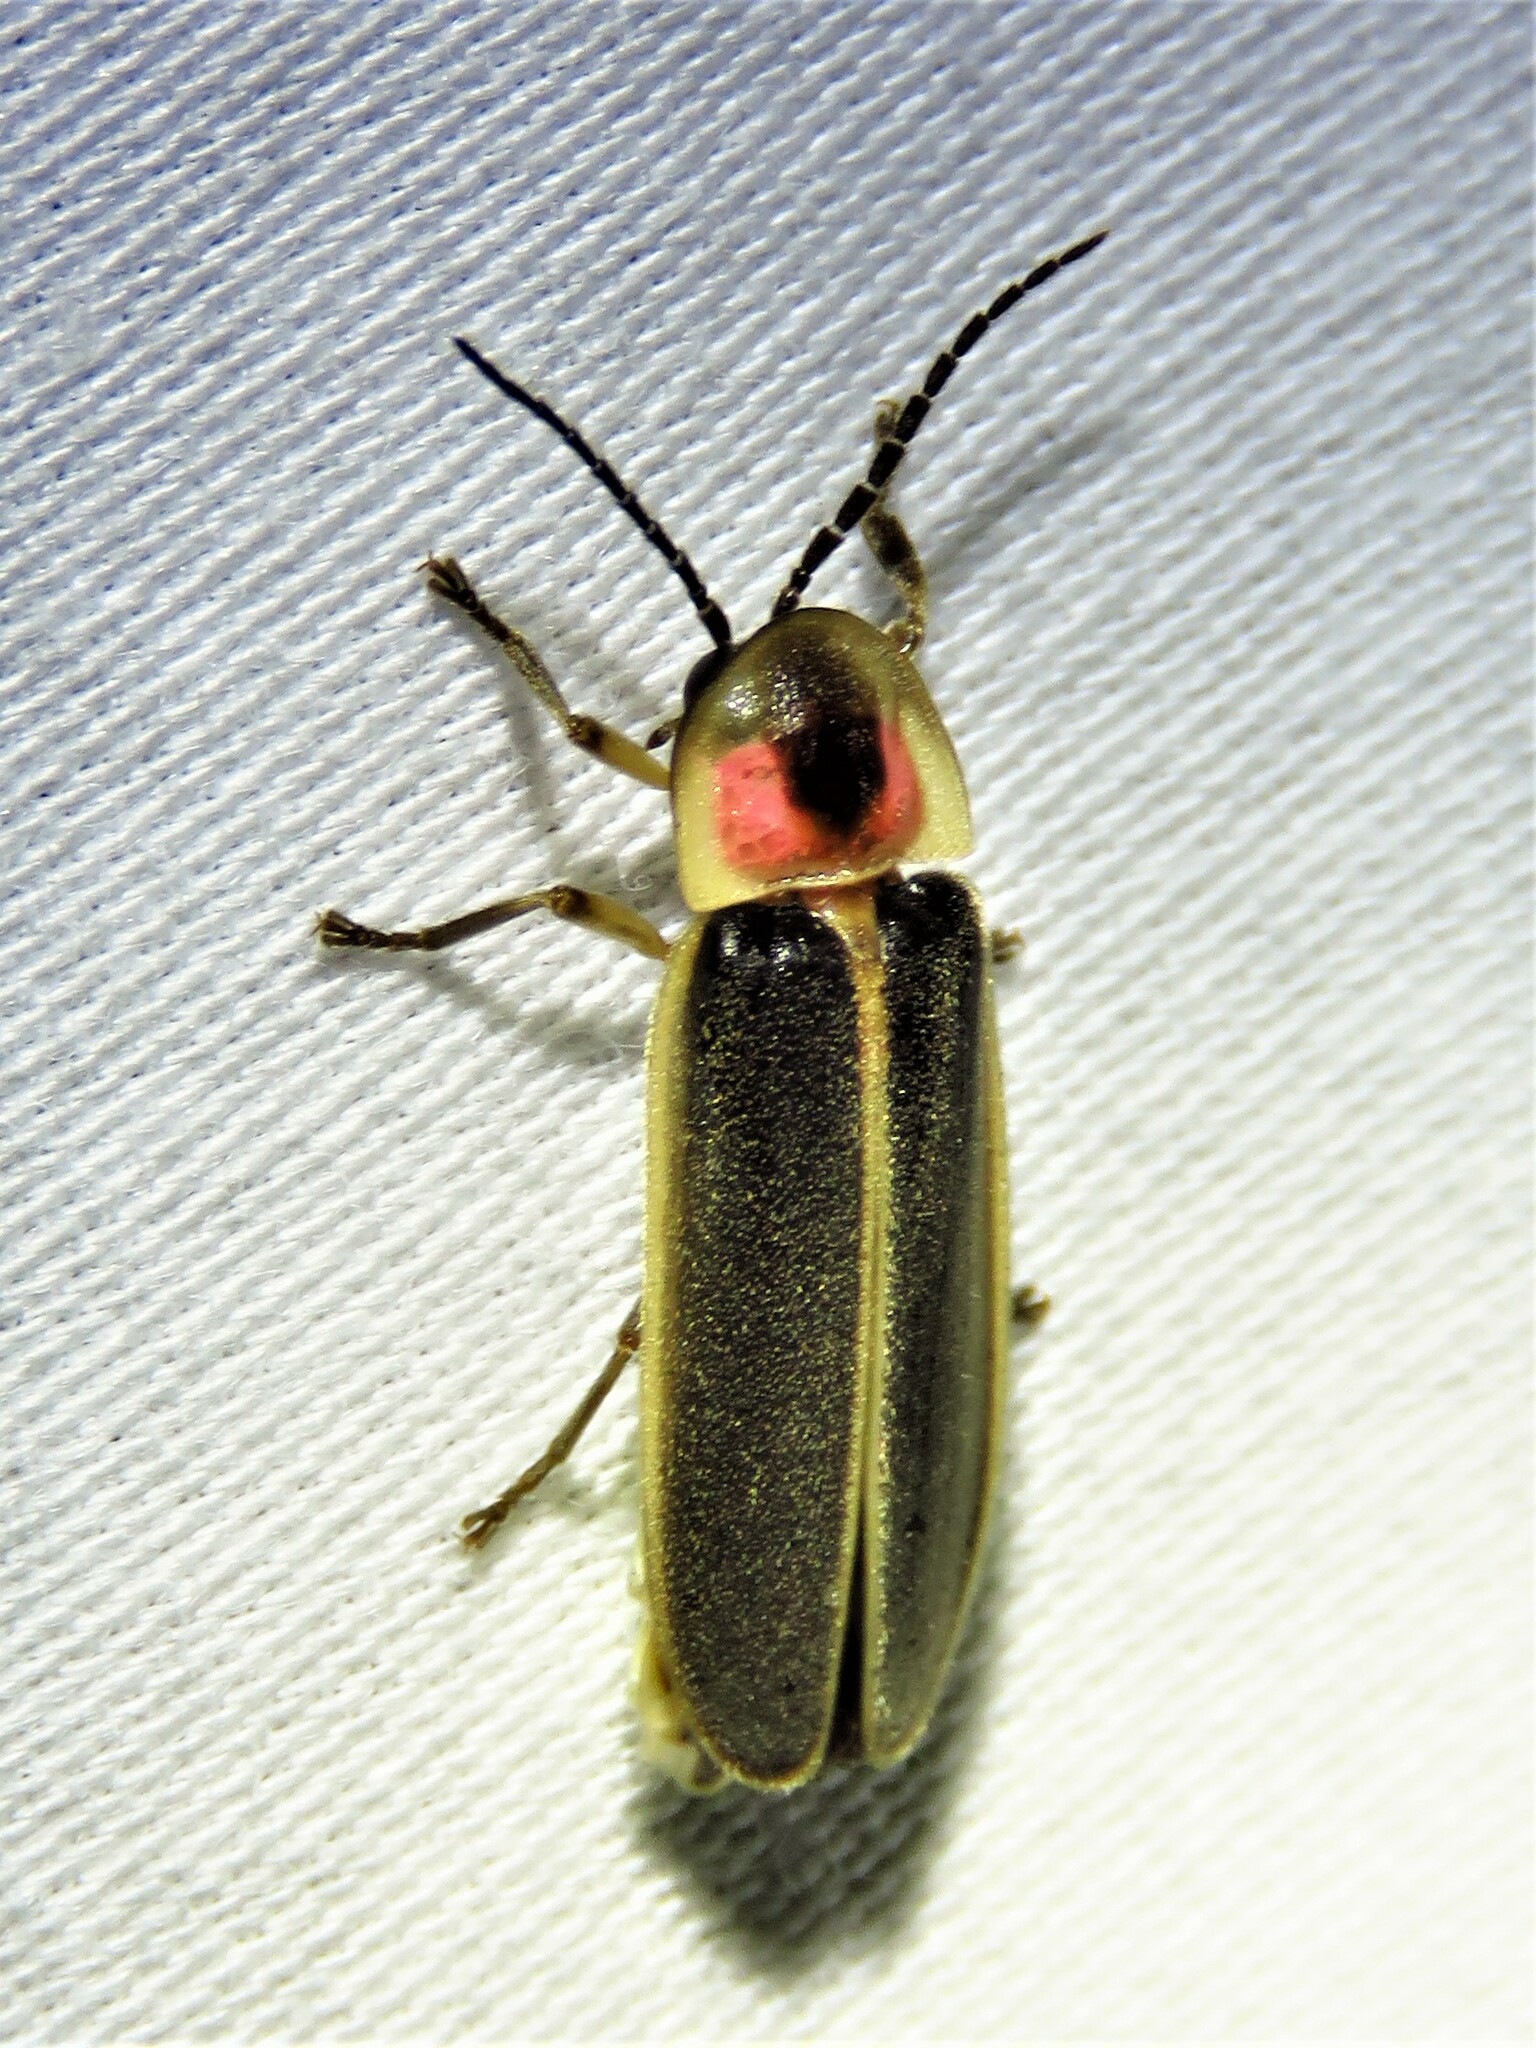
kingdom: Animalia
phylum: Arthropoda
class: Insecta
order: Coleoptera
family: Lampyridae
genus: Photinus
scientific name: Photinus pyralis
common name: Big dipper firefly
